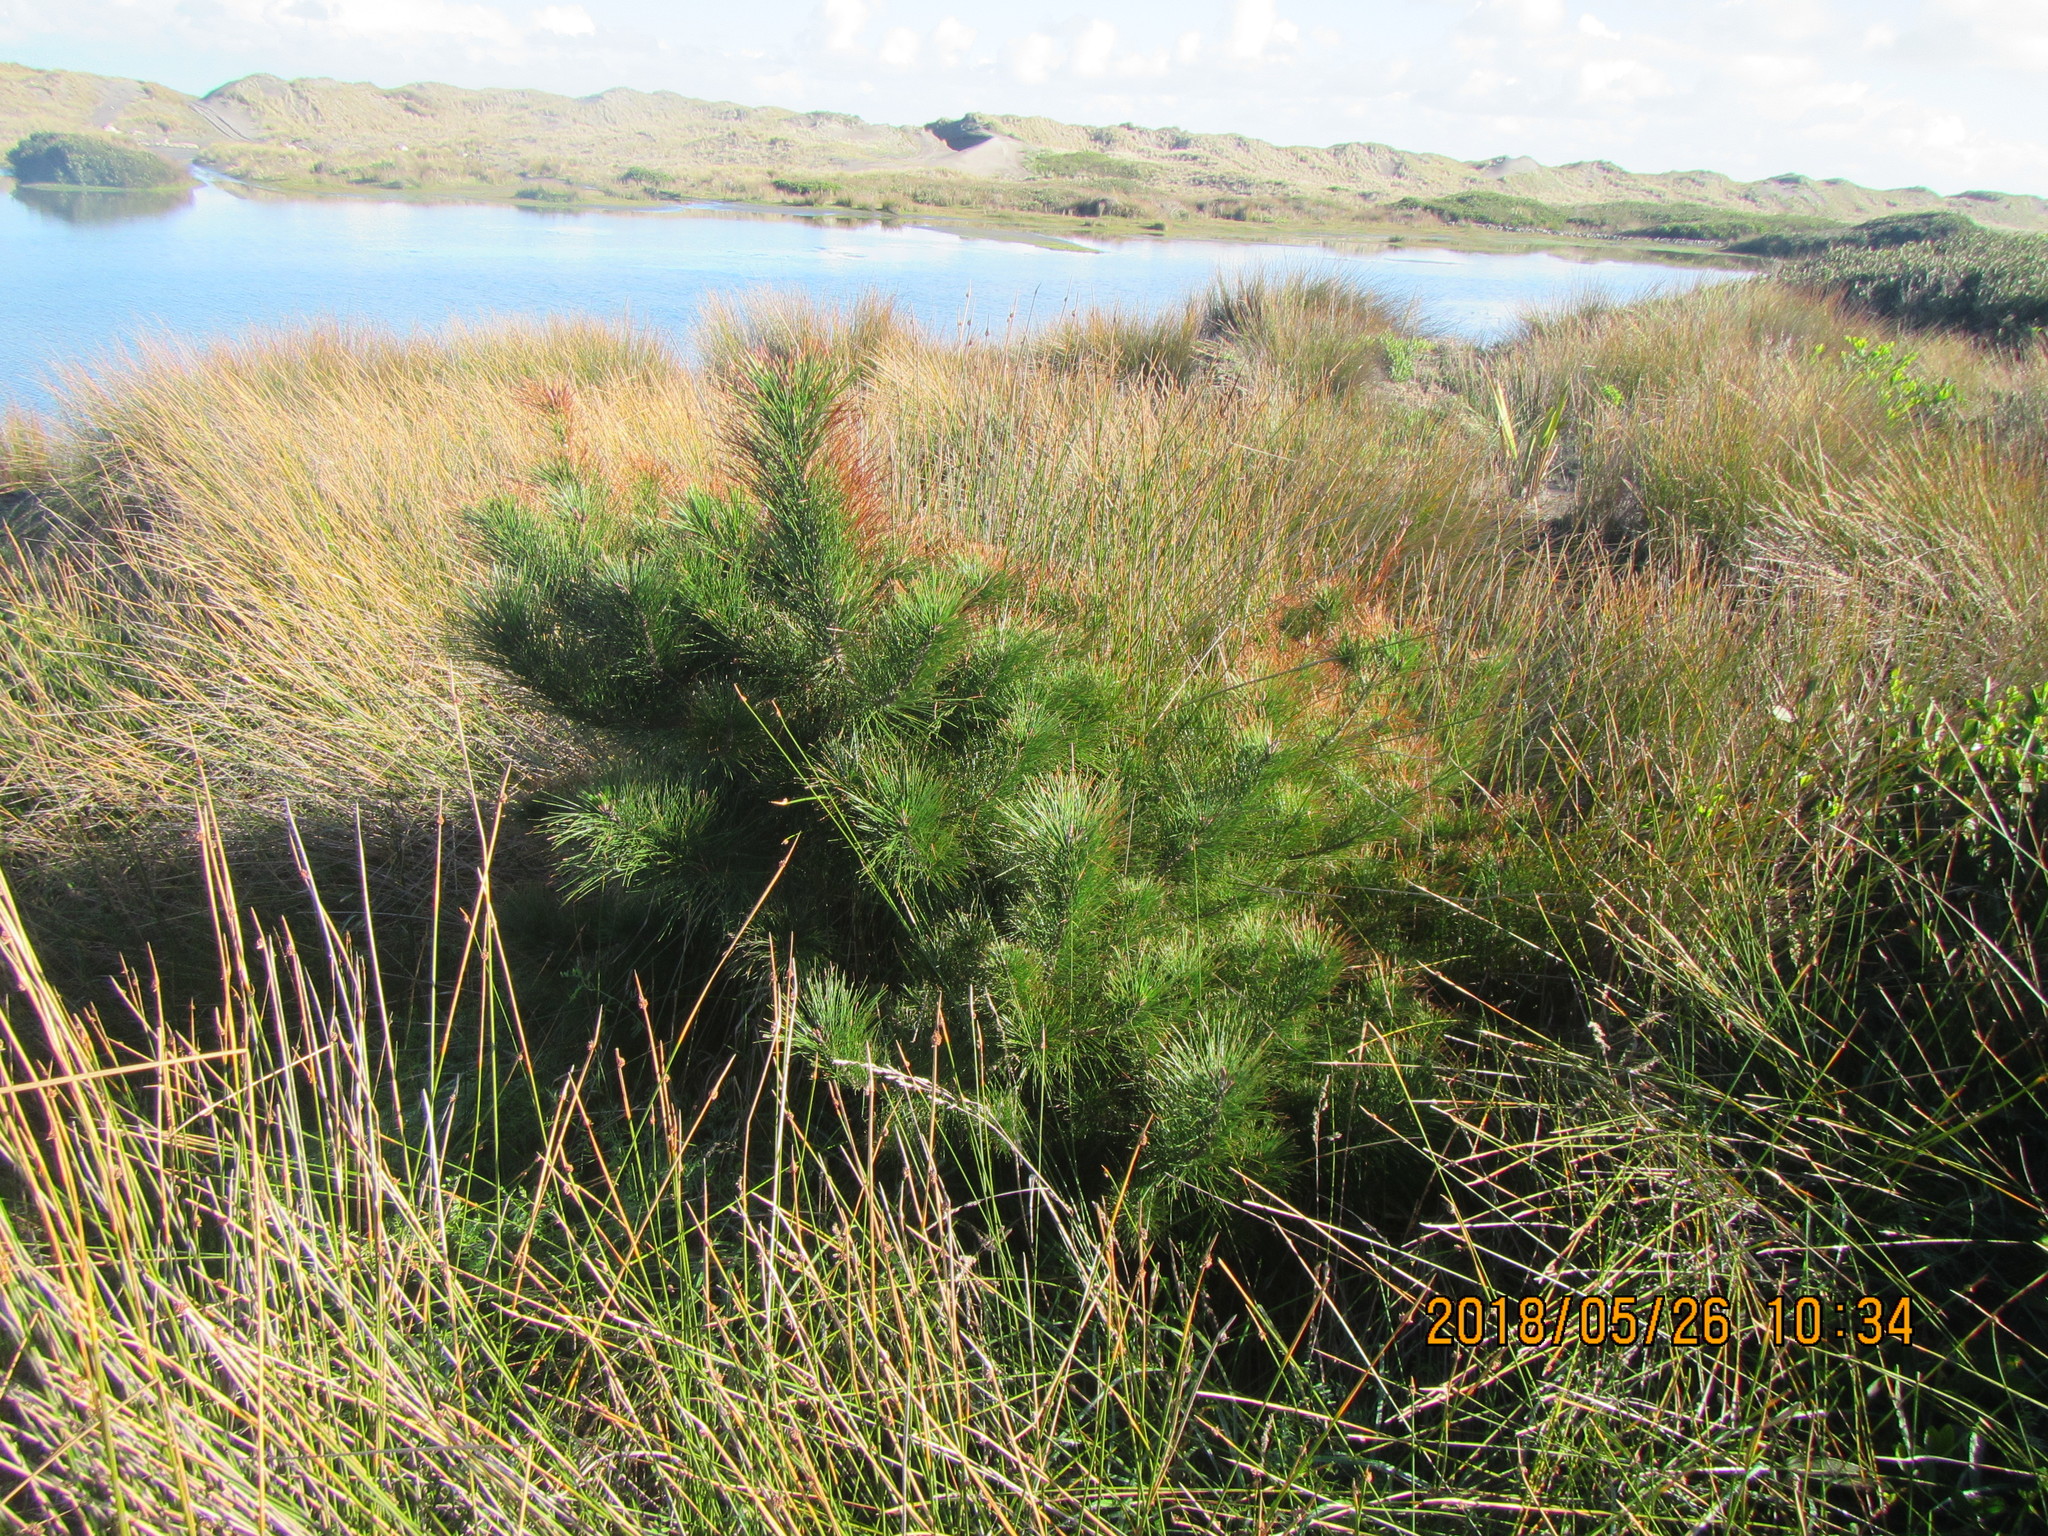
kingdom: Plantae
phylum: Tracheophyta
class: Pinopsida
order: Pinales
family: Pinaceae
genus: Pinus
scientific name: Pinus radiata
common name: Monterey pine
